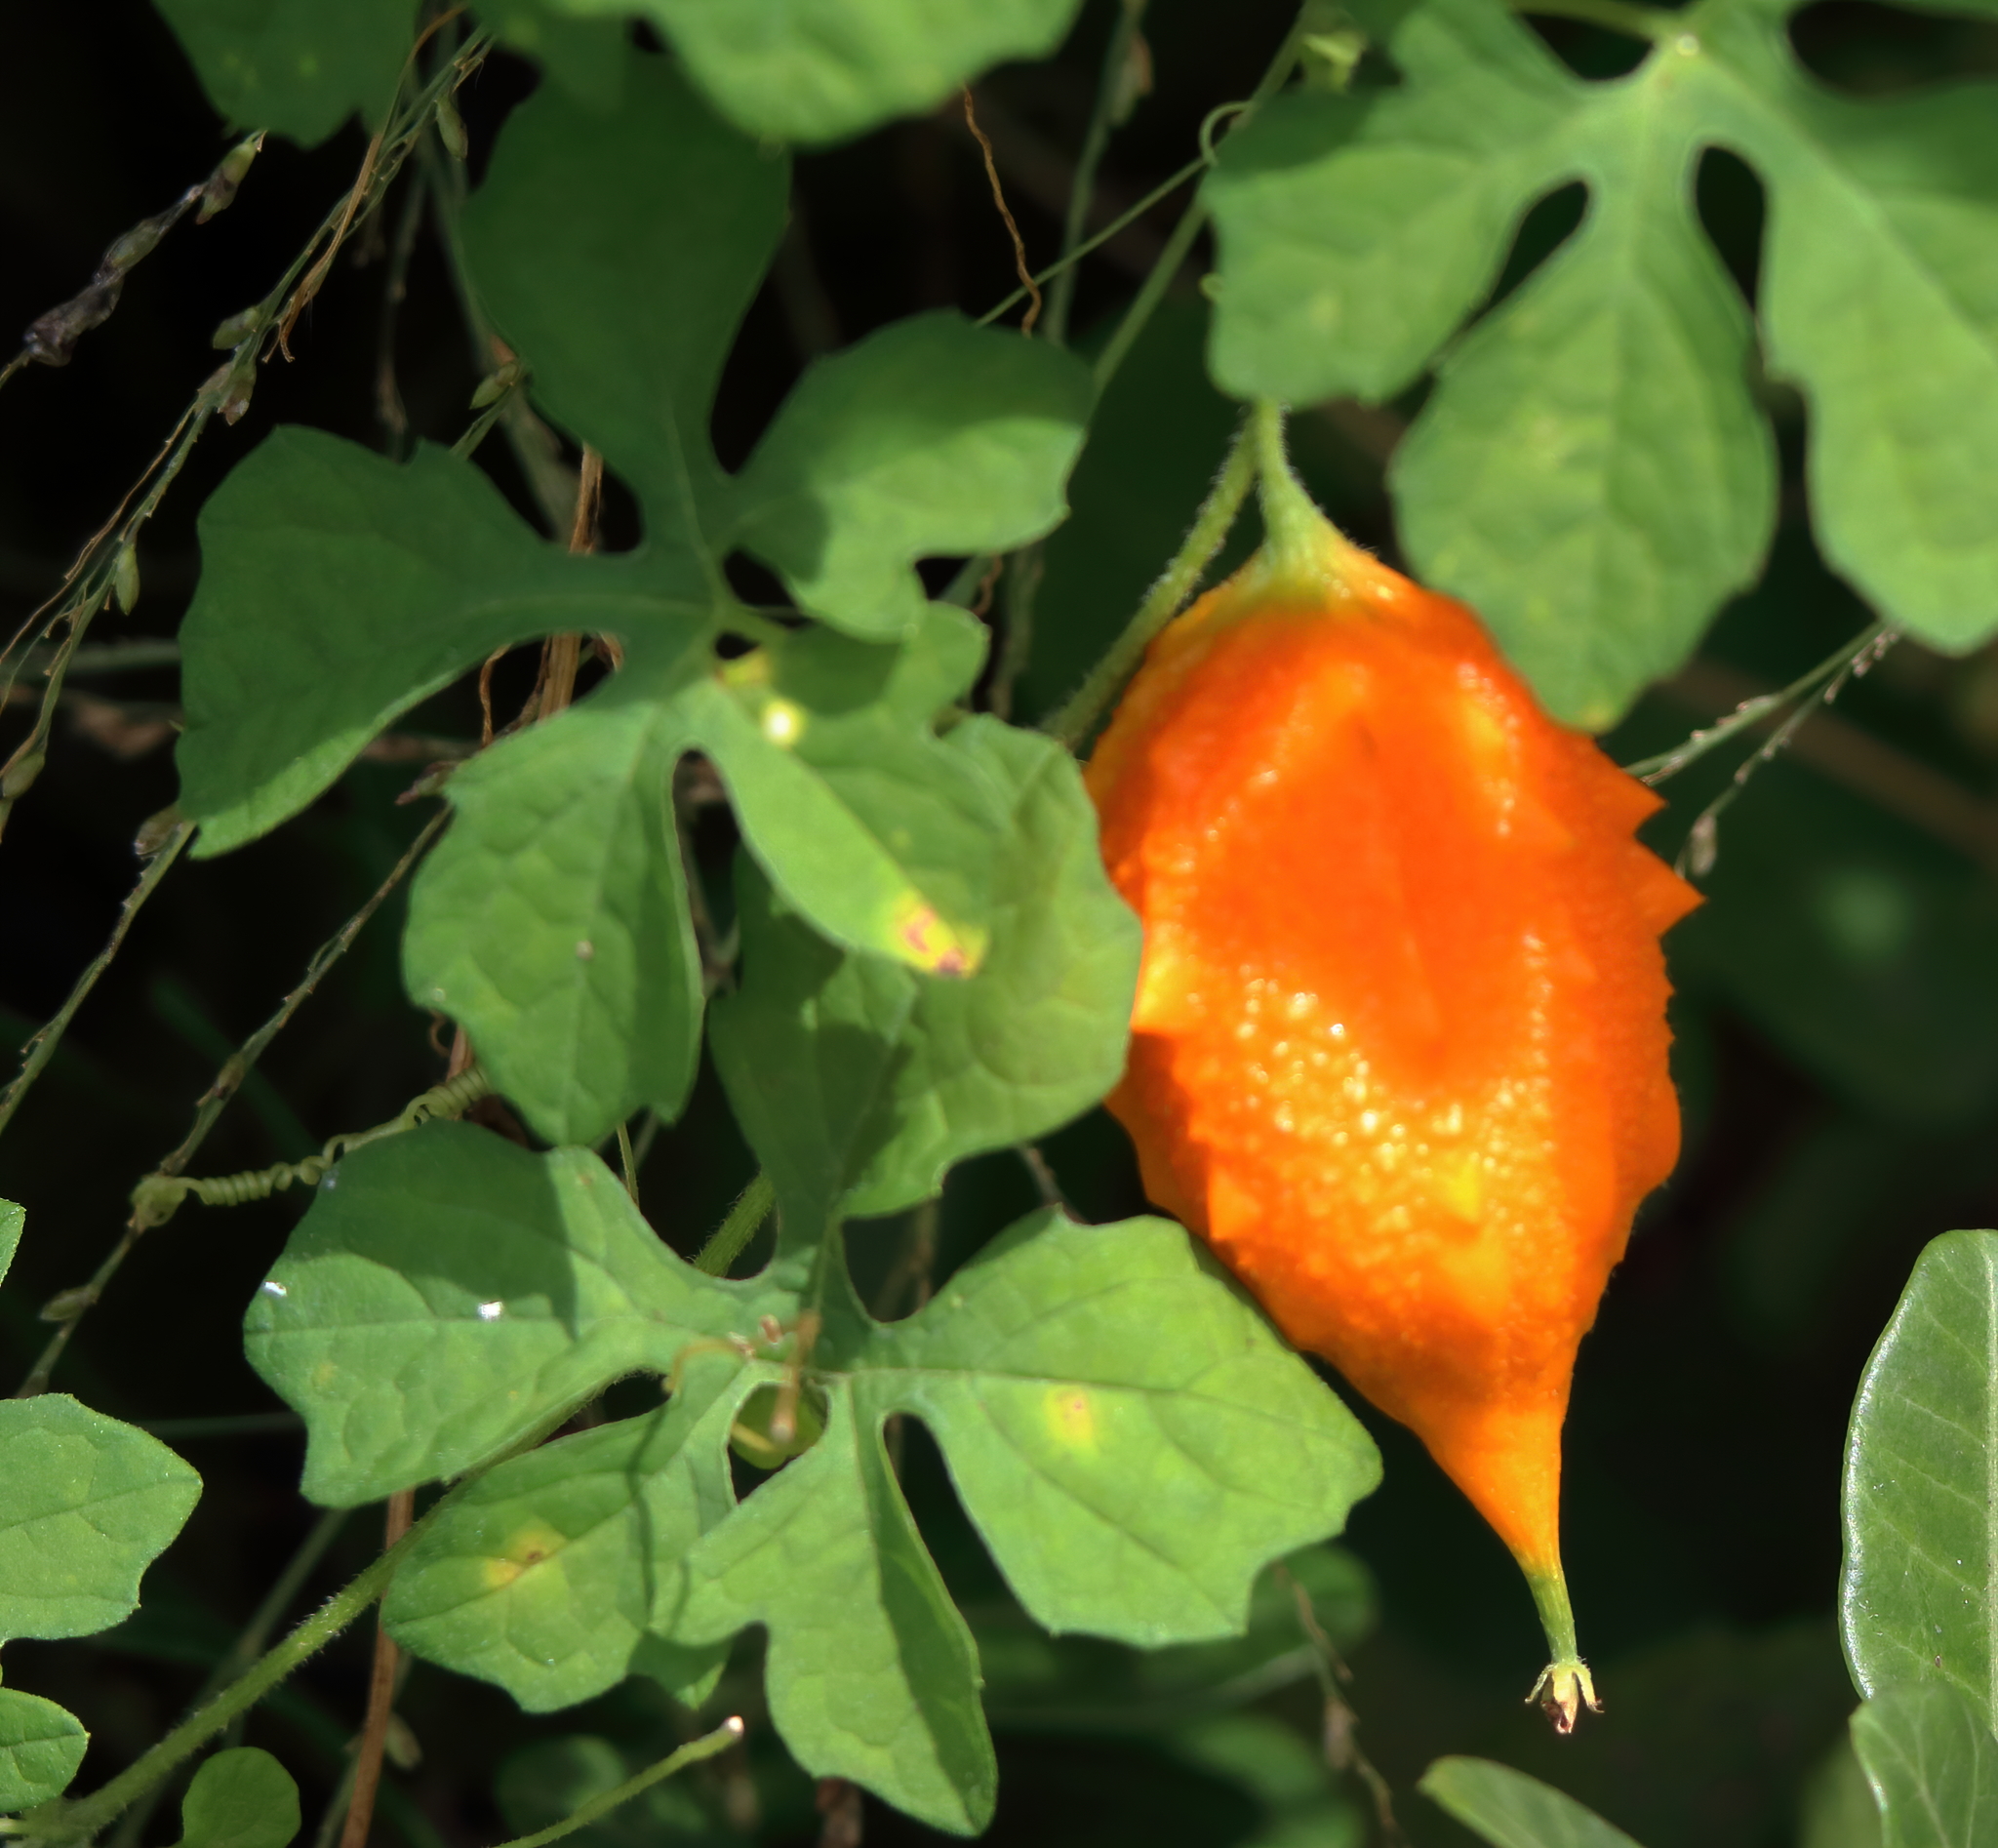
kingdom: Plantae
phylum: Tracheophyta
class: Magnoliopsida
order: Cucurbitales
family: Cucurbitaceae
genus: Momordica
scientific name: Momordica charantia
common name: Balsampear
